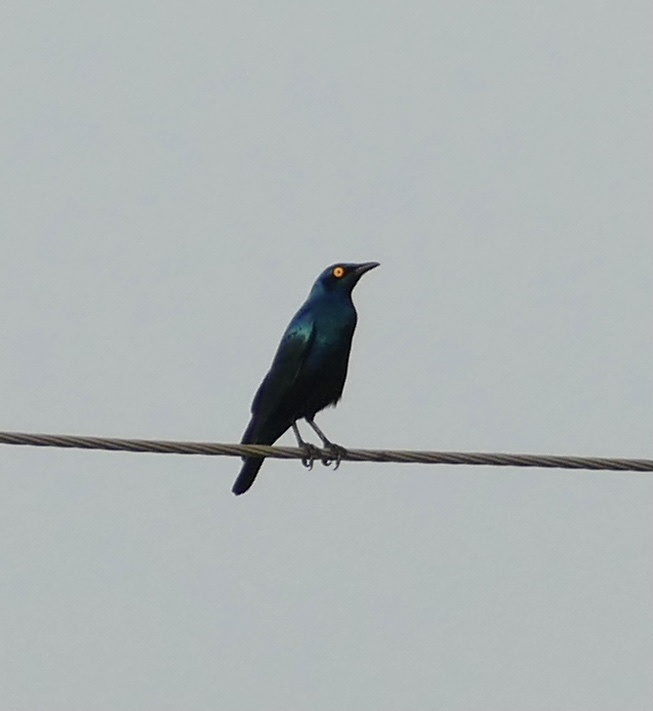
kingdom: Animalia
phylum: Chordata
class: Aves
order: Passeriformes
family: Sturnidae
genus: Lamprotornis
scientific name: Lamprotornis purpureus
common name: Purple starling
